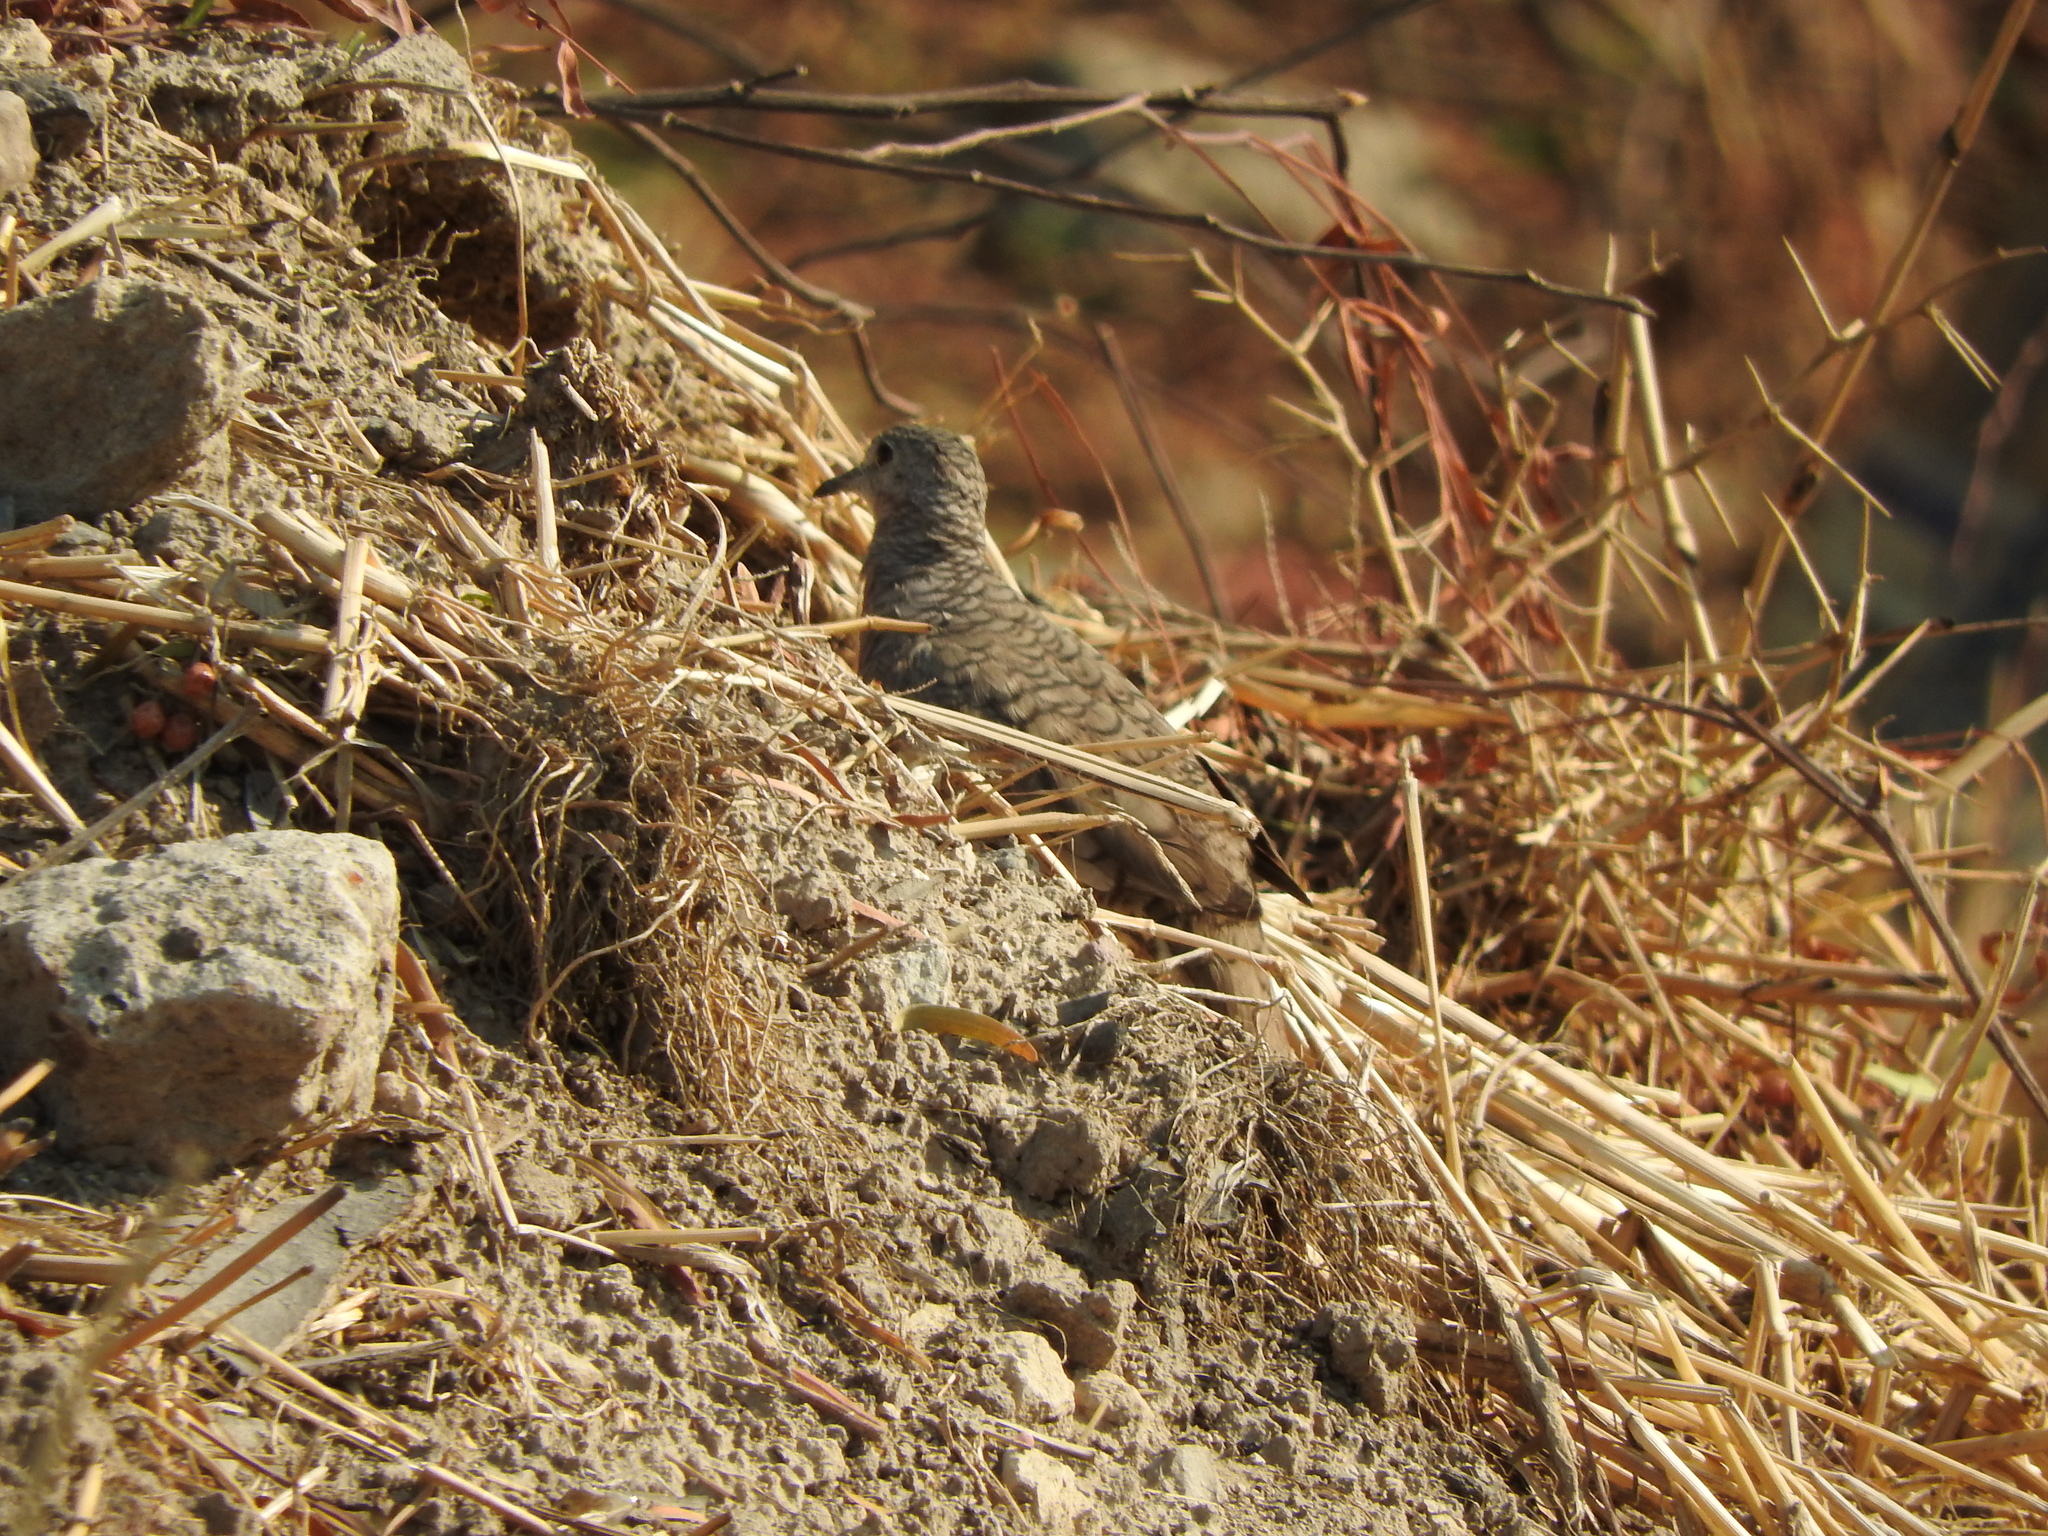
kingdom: Animalia
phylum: Chordata
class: Aves
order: Columbiformes
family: Columbidae
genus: Columbina
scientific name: Columbina inca
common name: Inca dove
